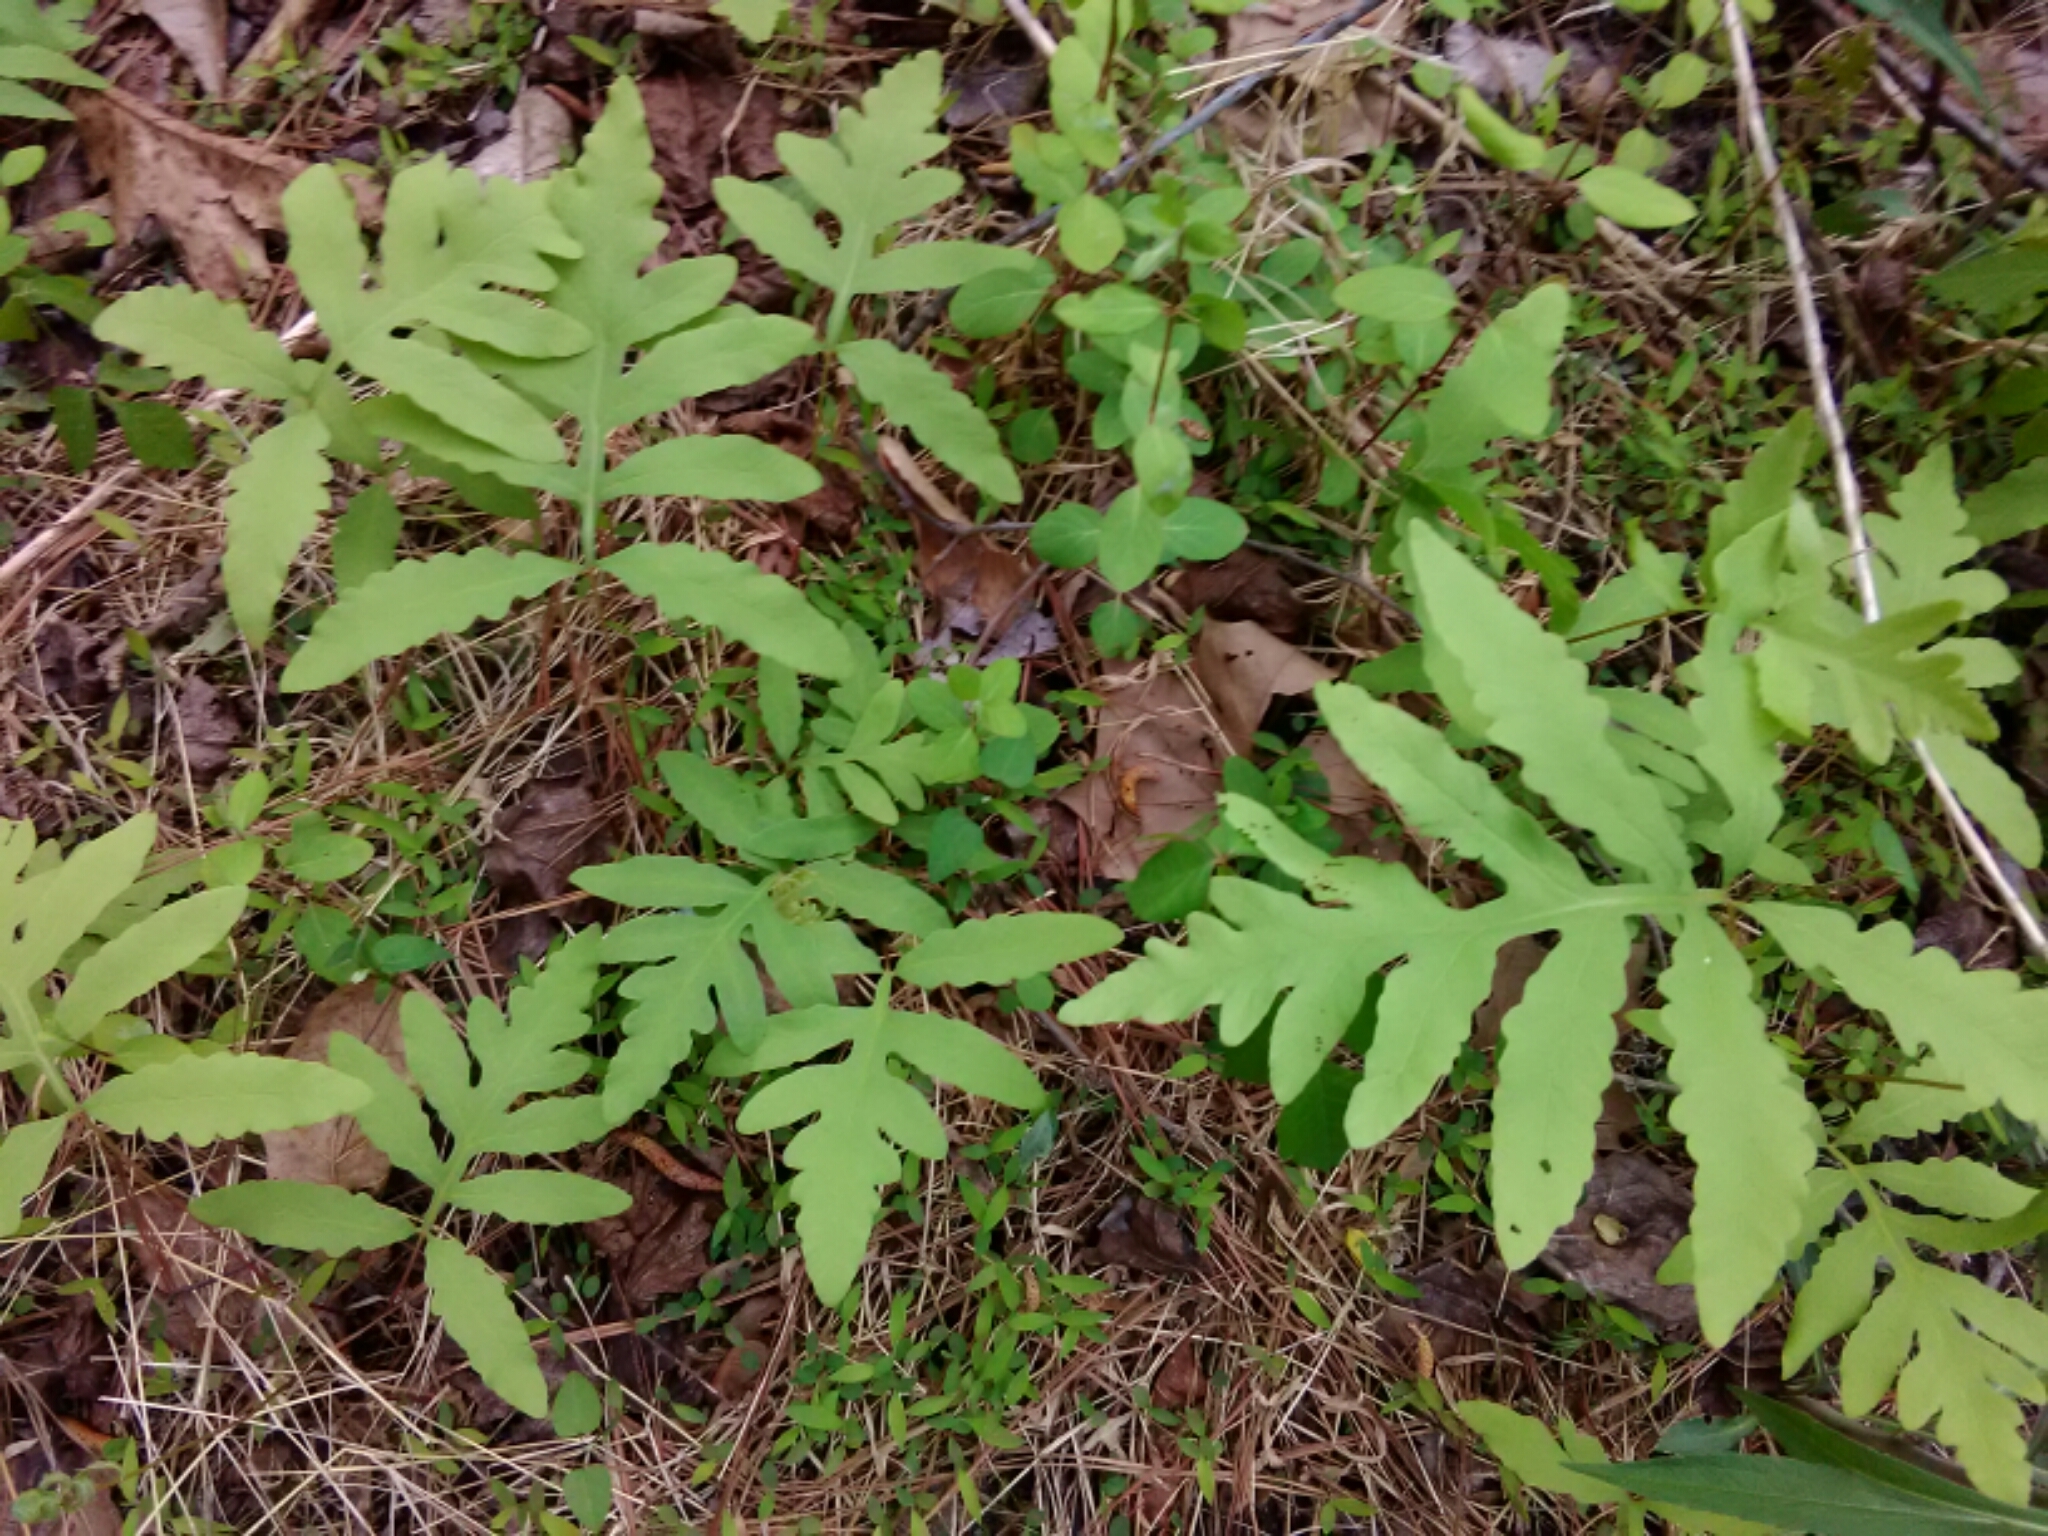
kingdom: Plantae
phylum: Tracheophyta
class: Polypodiopsida
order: Polypodiales
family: Onocleaceae
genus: Onoclea
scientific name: Onoclea sensibilis
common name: Sensitive fern
